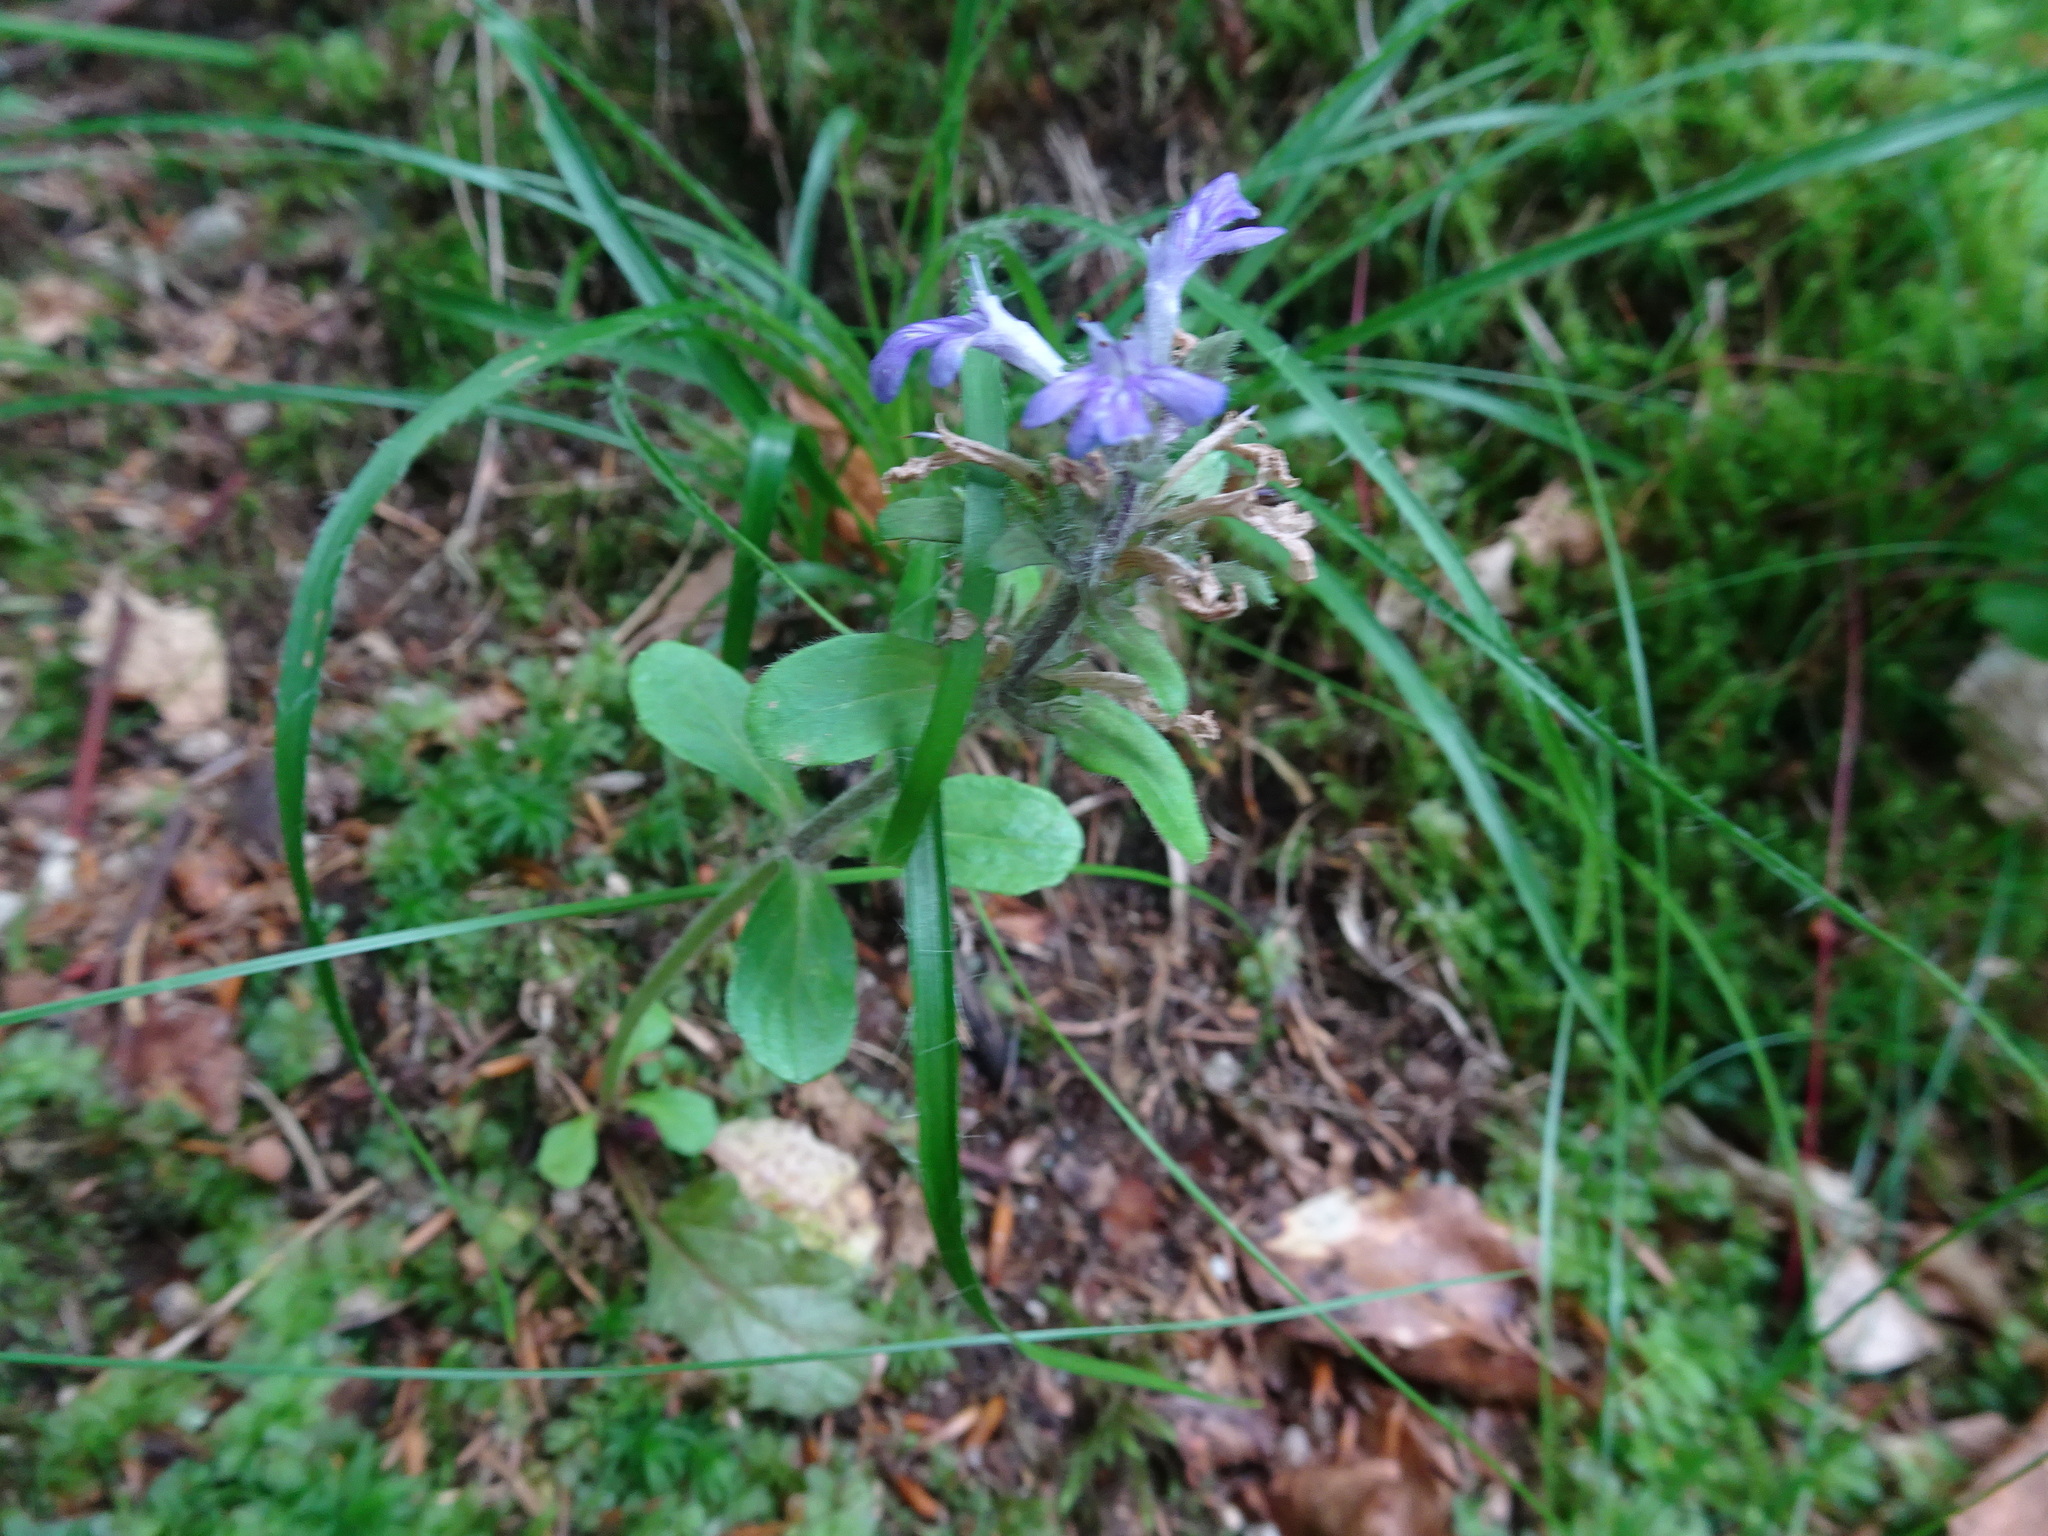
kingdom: Plantae
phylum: Tracheophyta
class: Magnoliopsida
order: Lamiales
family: Lamiaceae
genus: Ajuga
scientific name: Ajuga reptans
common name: Bugle
